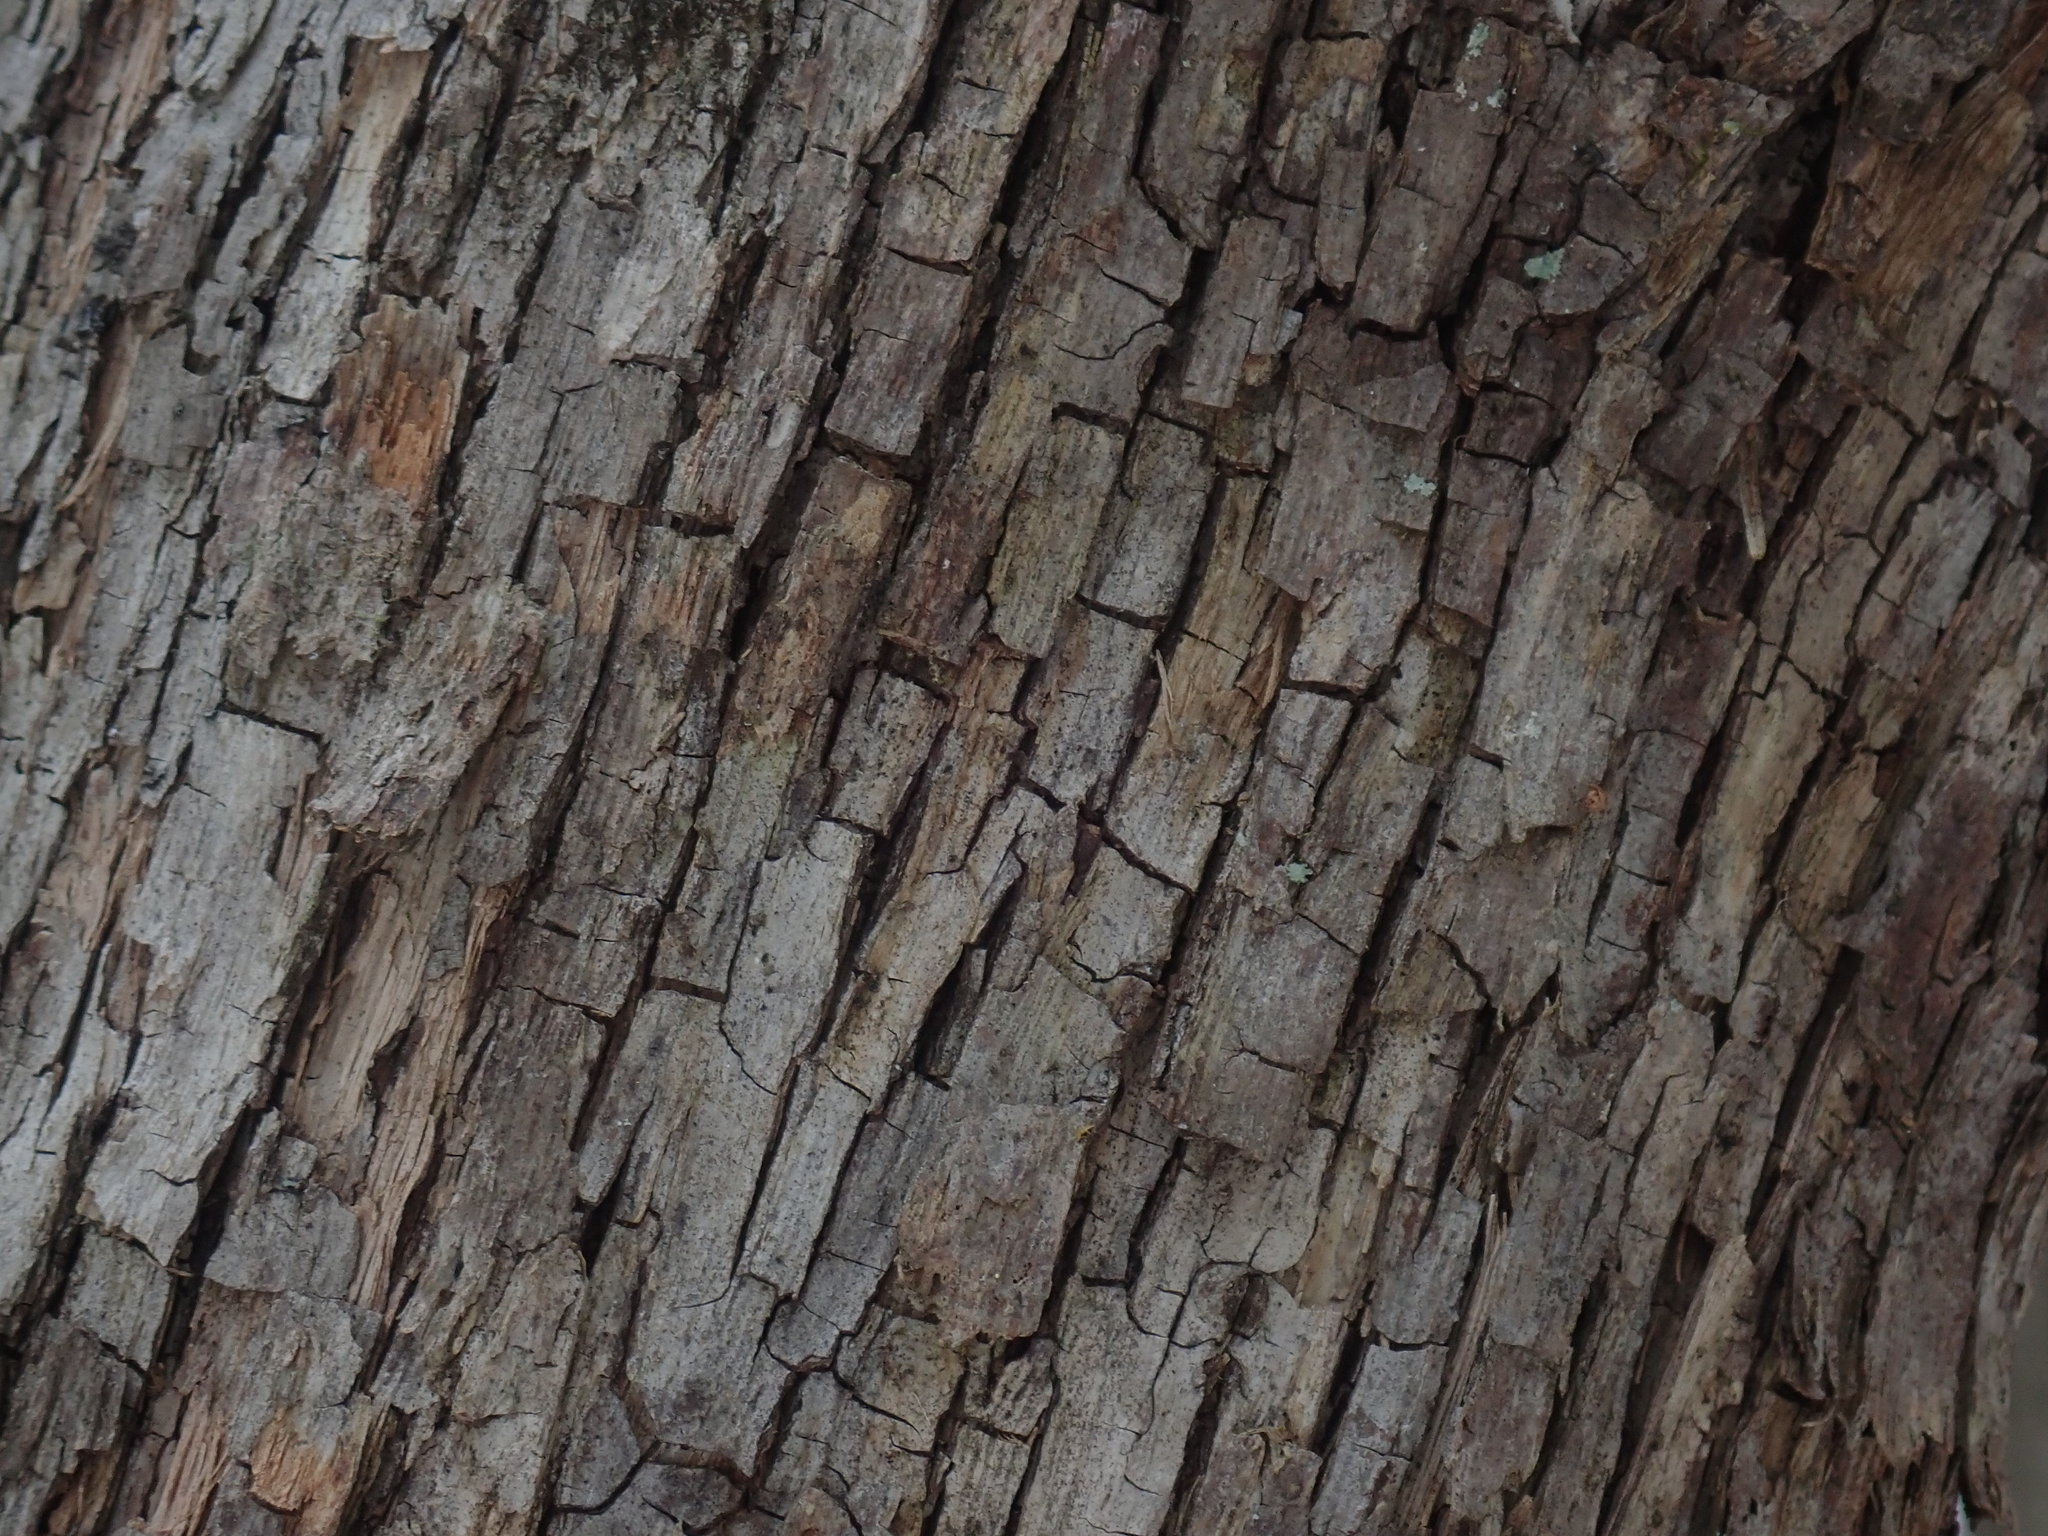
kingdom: Plantae
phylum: Tracheophyta
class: Magnoliopsida
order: Fagales
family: Betulaceae
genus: Ostrya
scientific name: Ostrya virginiana
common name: Ironwood
